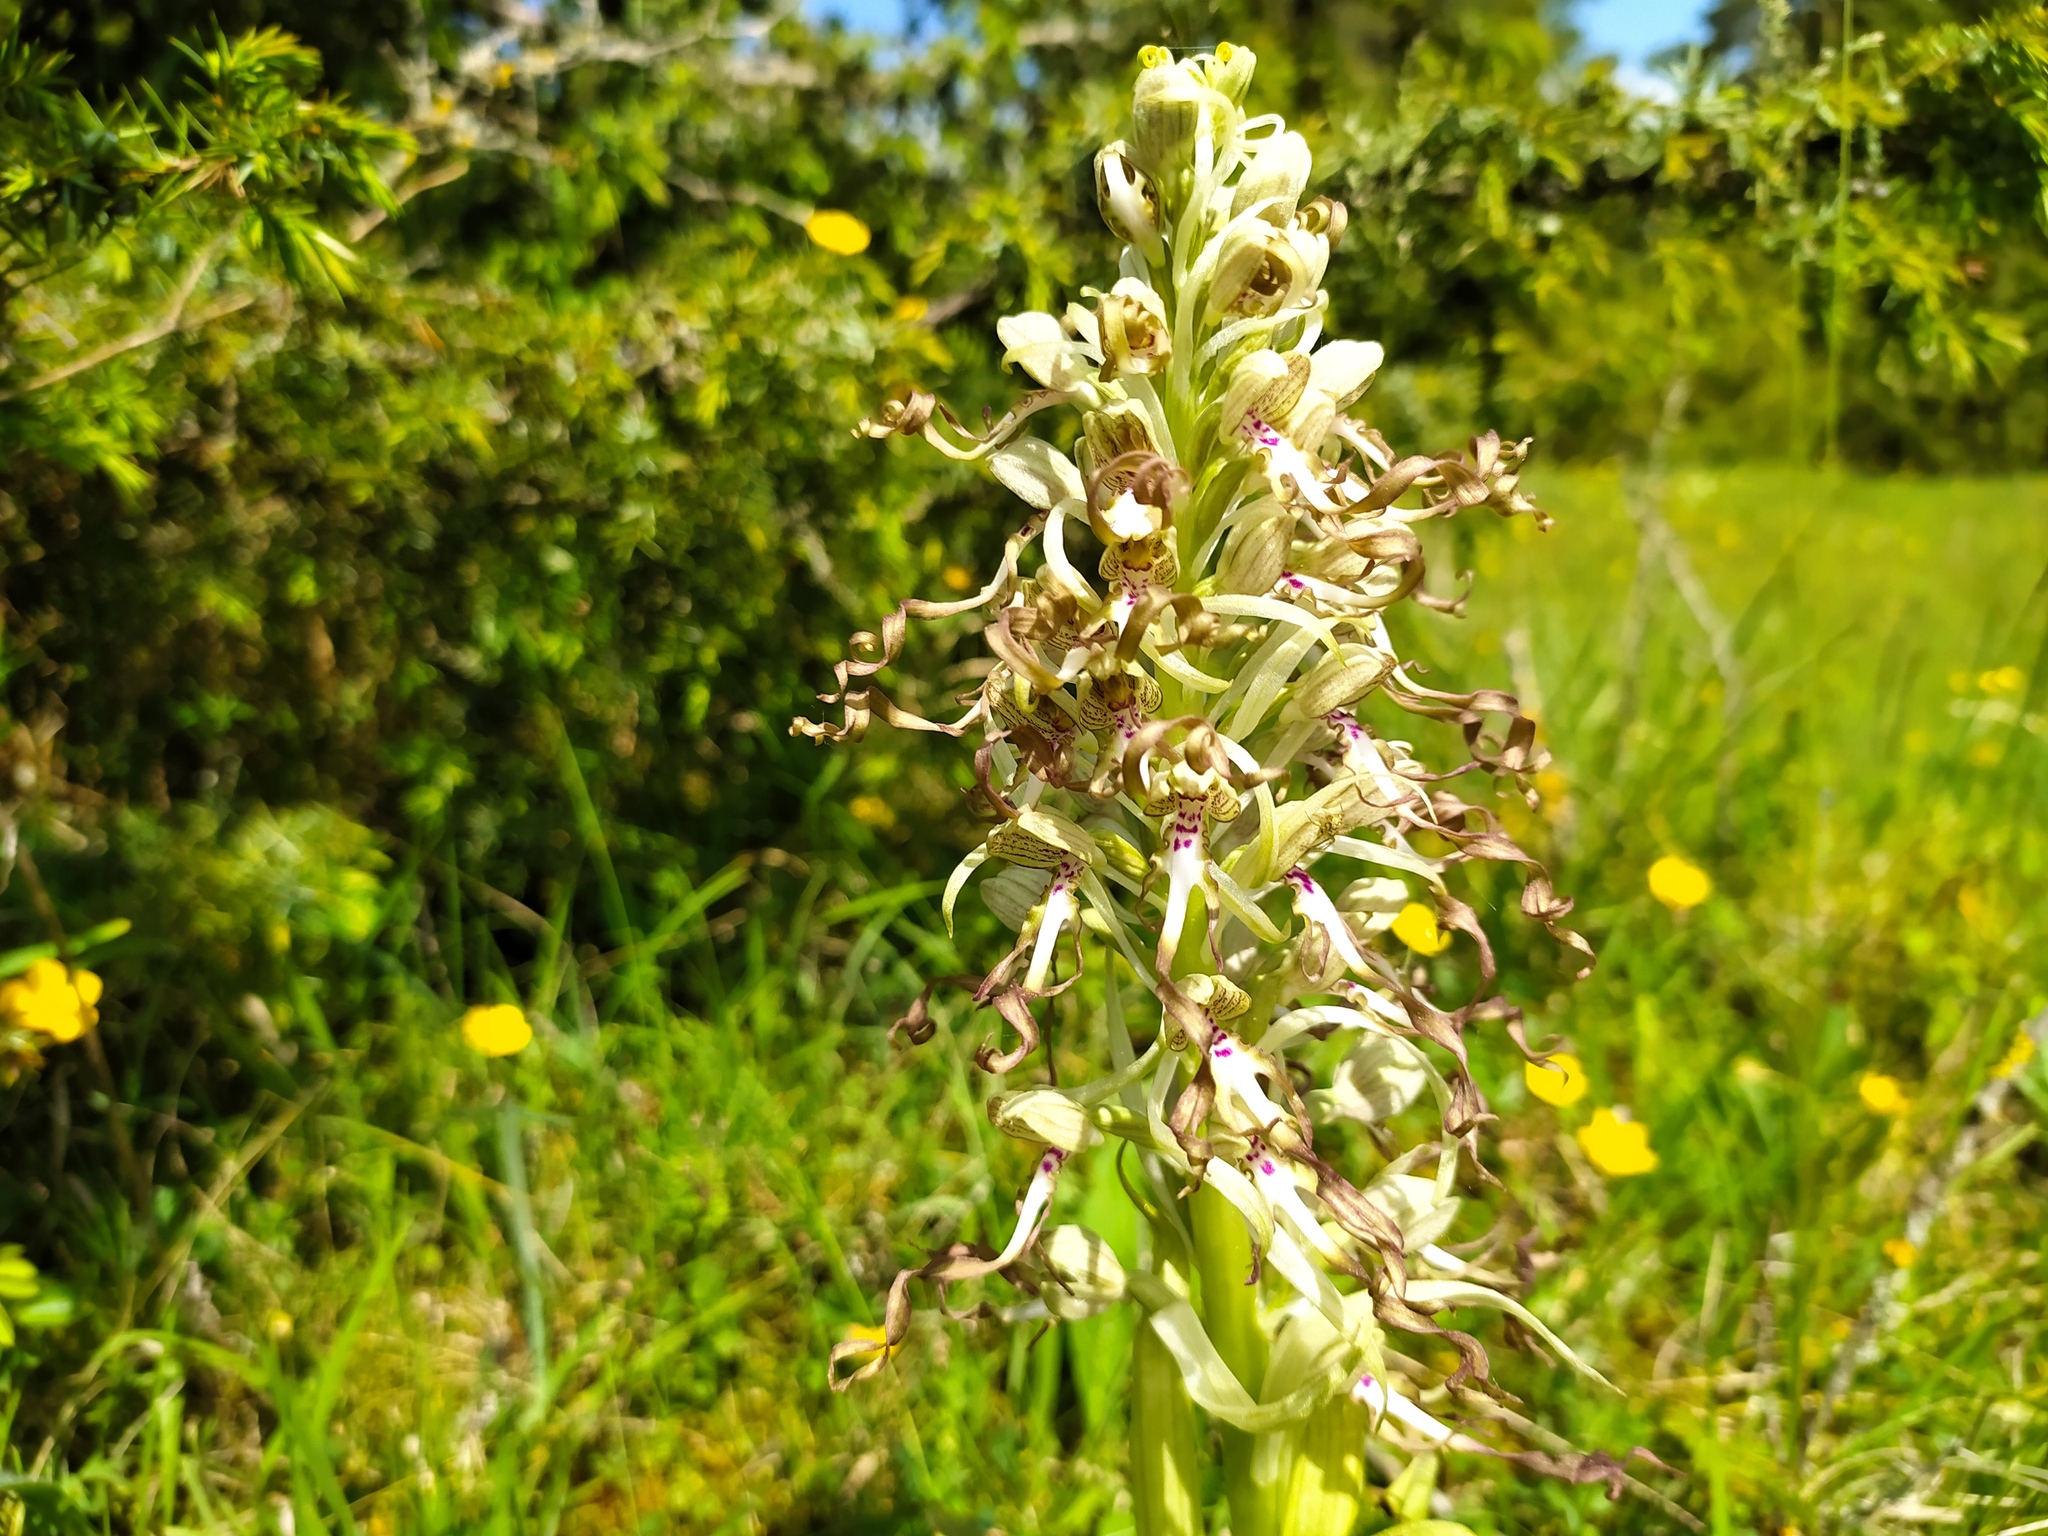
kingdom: Plantae
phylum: Tracheophyta
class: Liliopsida
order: Asparagales
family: Orchidaceae
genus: Himantoglossum
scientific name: Himantoglossum hircinum
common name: Lizard orchid
